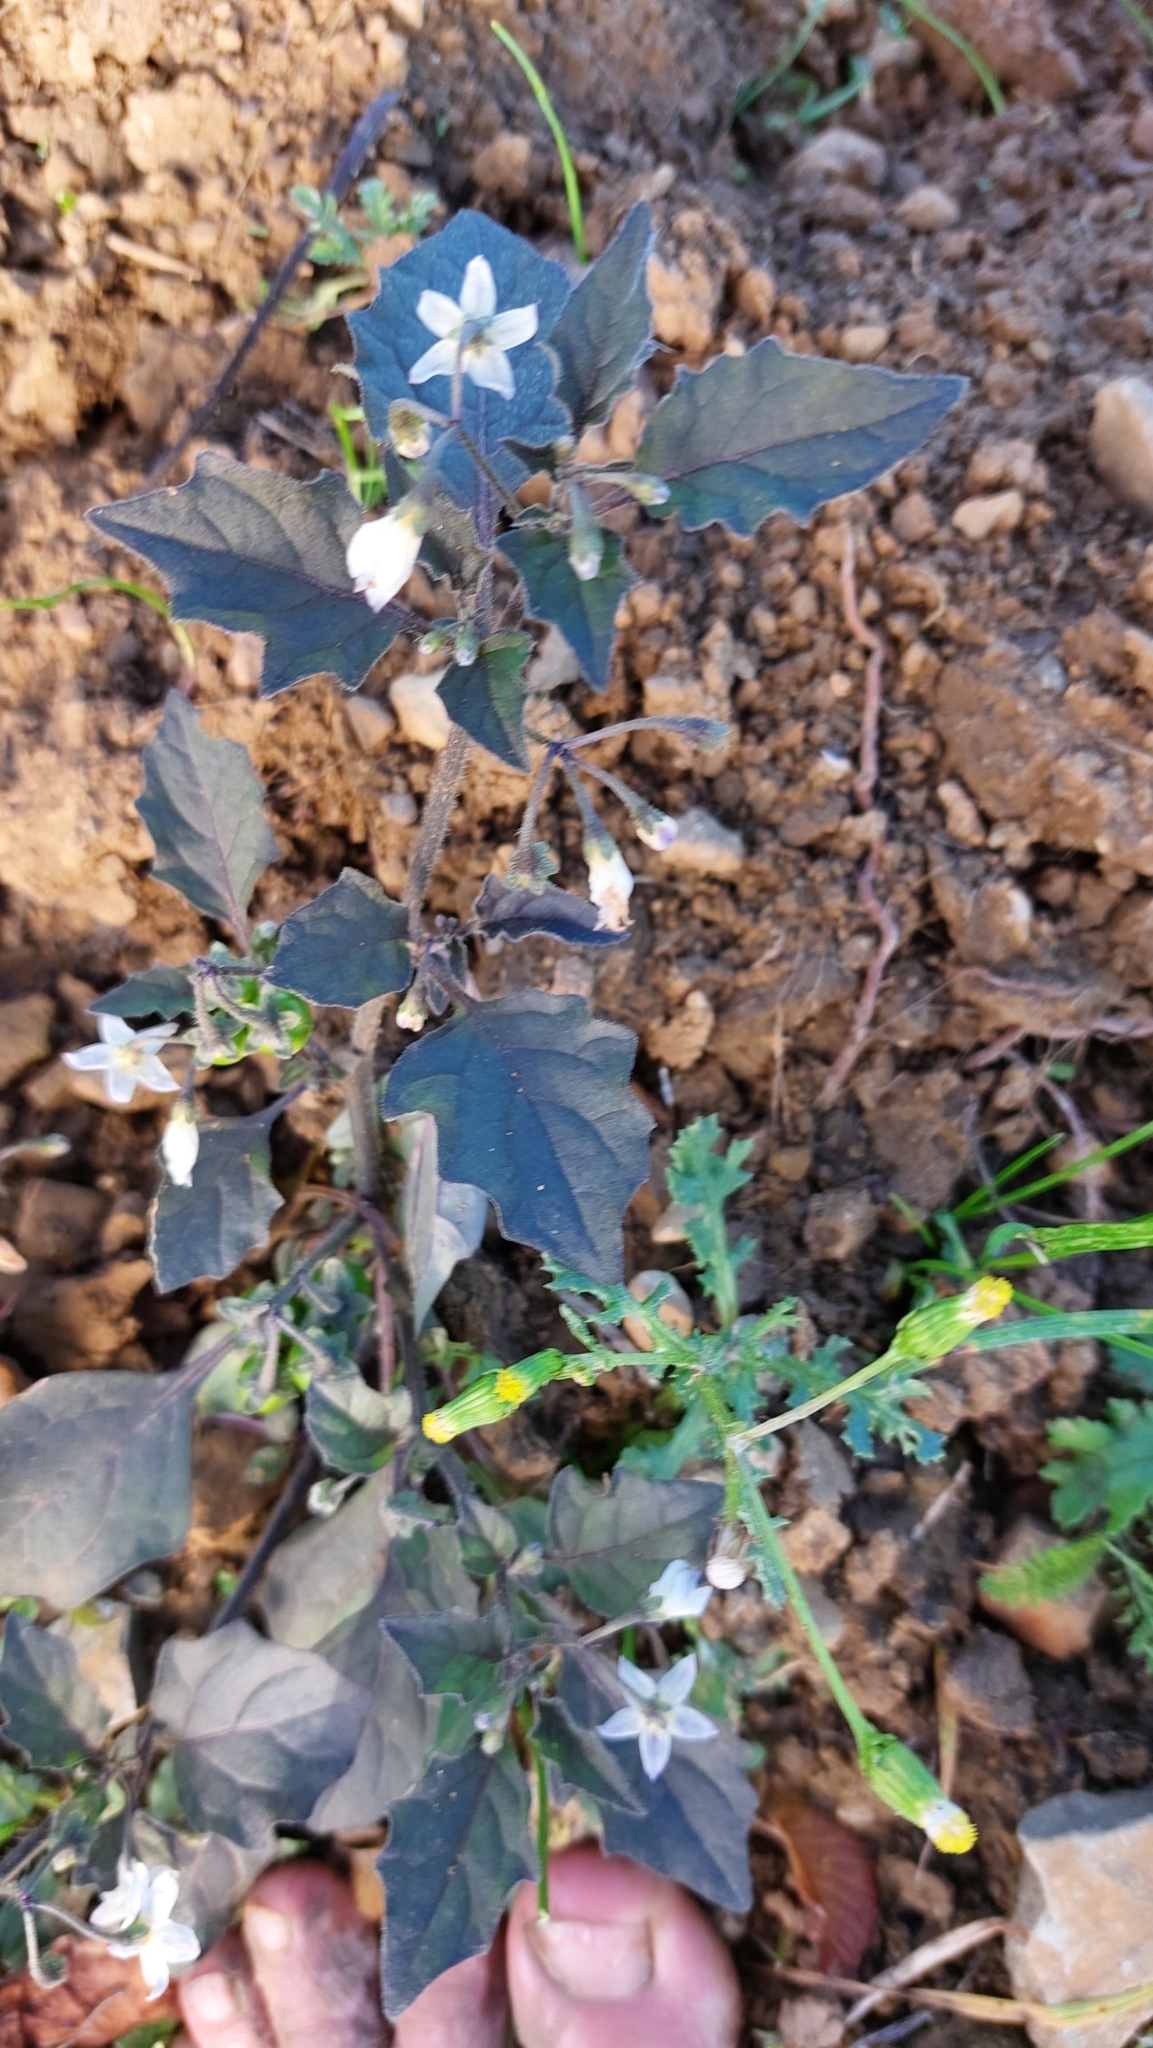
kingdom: Plantae
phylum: Tracheophyta
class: Magnoliopsida
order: Solanales
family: Solanaceae
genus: Solanum
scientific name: Solanum nigrum
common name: Black nightshade
